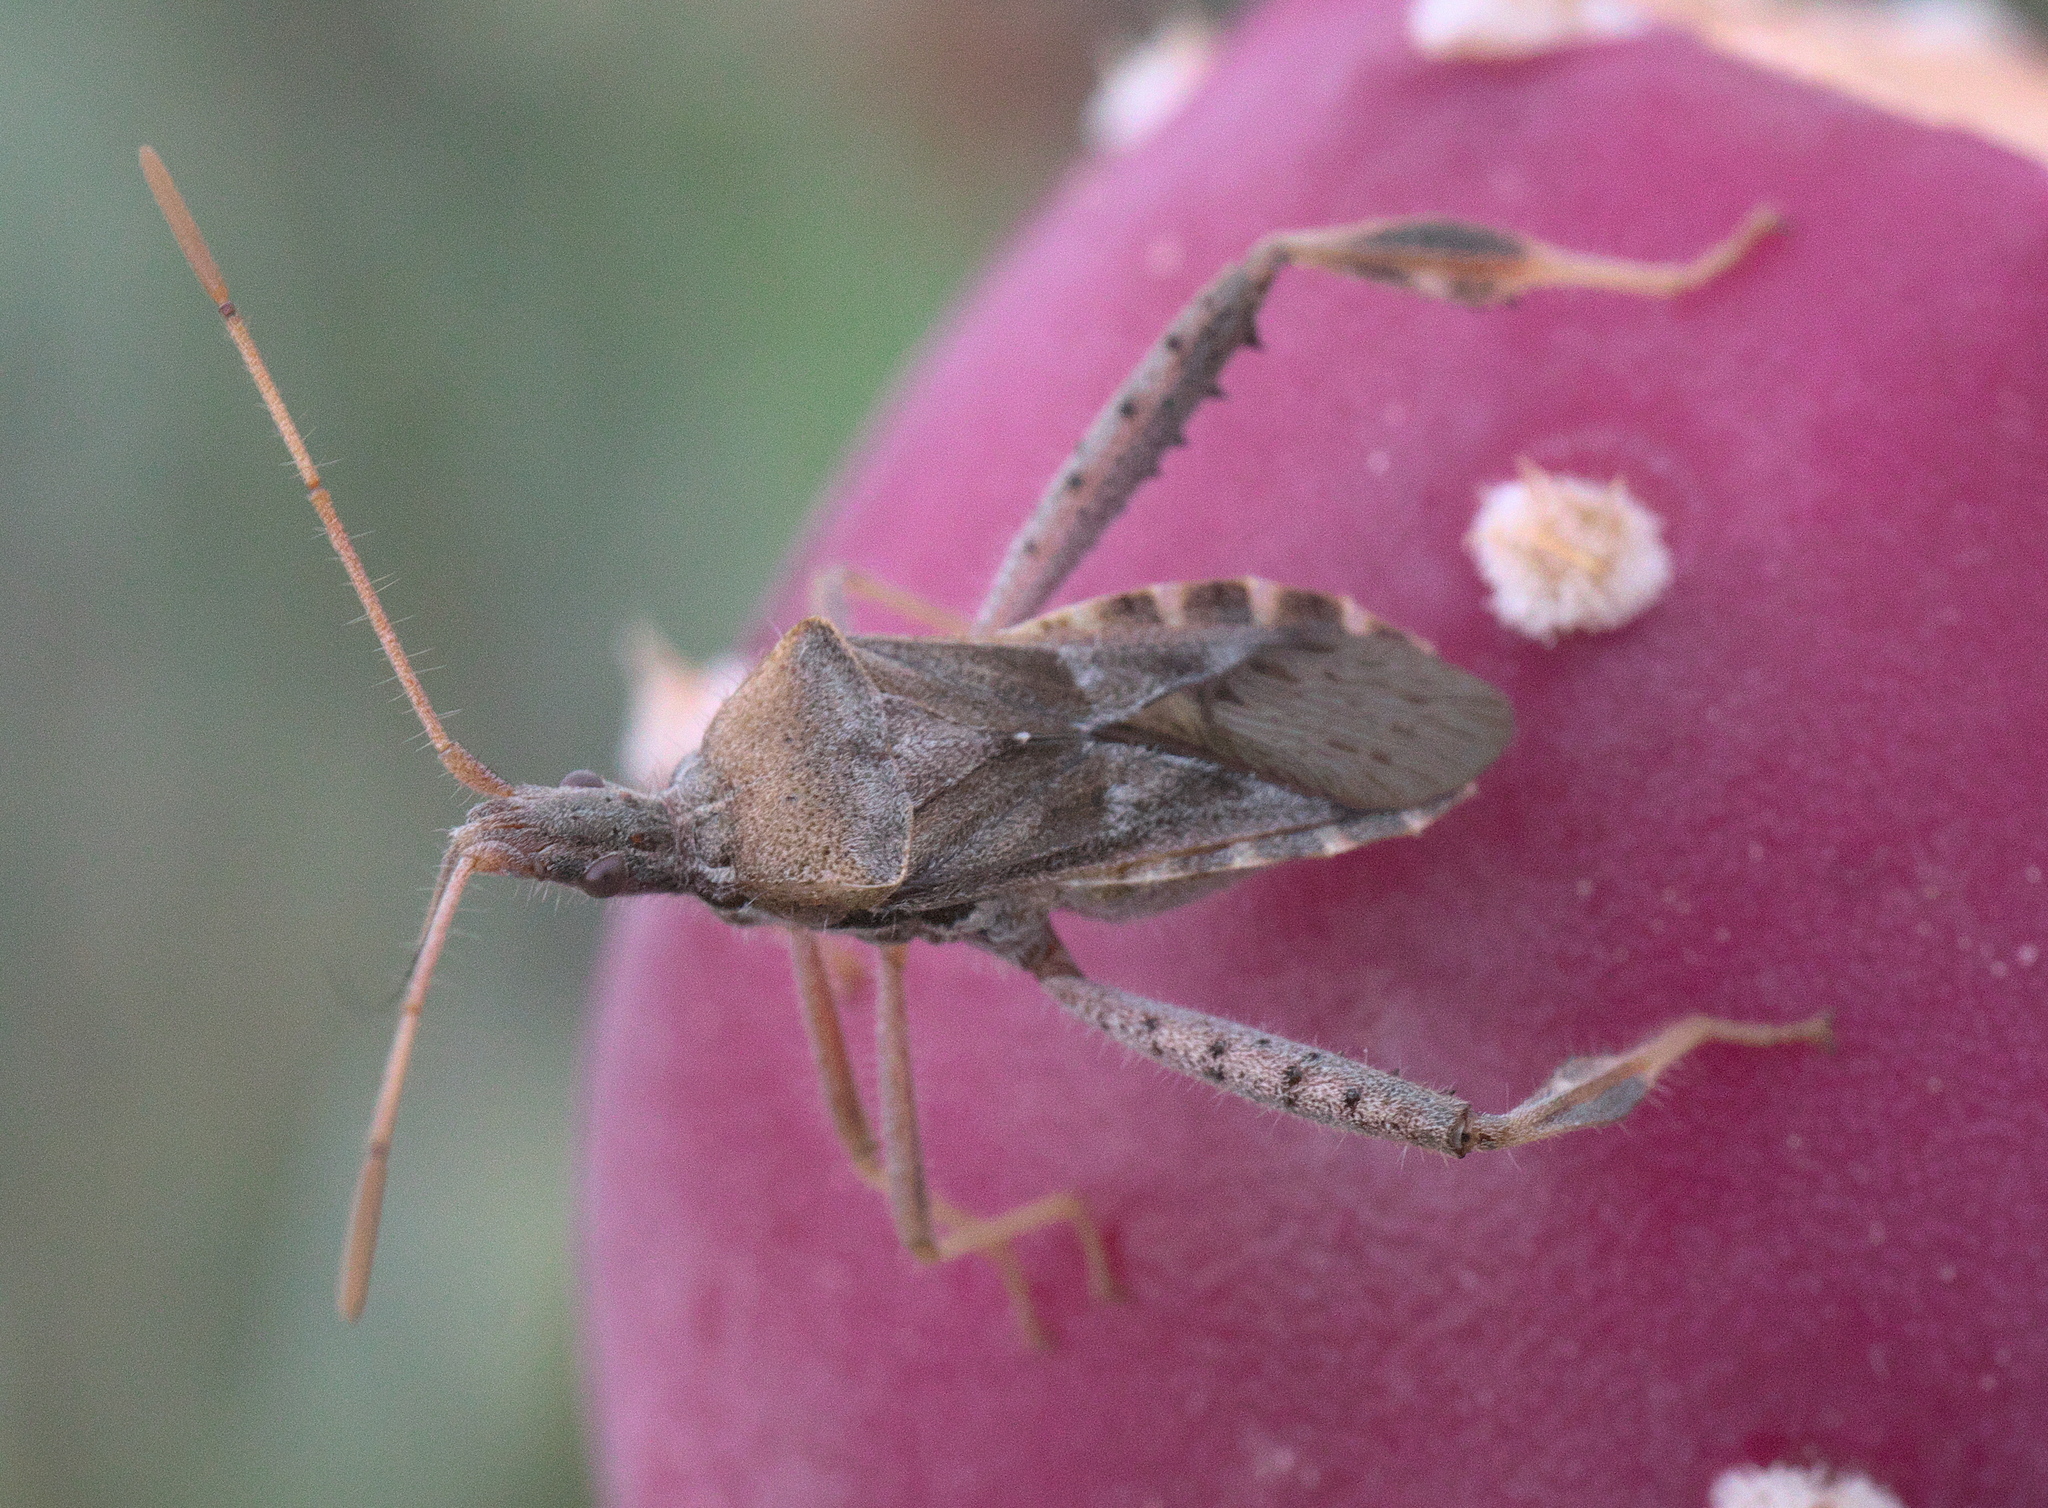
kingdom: Animalia
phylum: Arthropoda
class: Insecta
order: Hemiptera
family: Coreidae
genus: Narnia
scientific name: Narnia femorata
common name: Leaf-footed cactus bug
